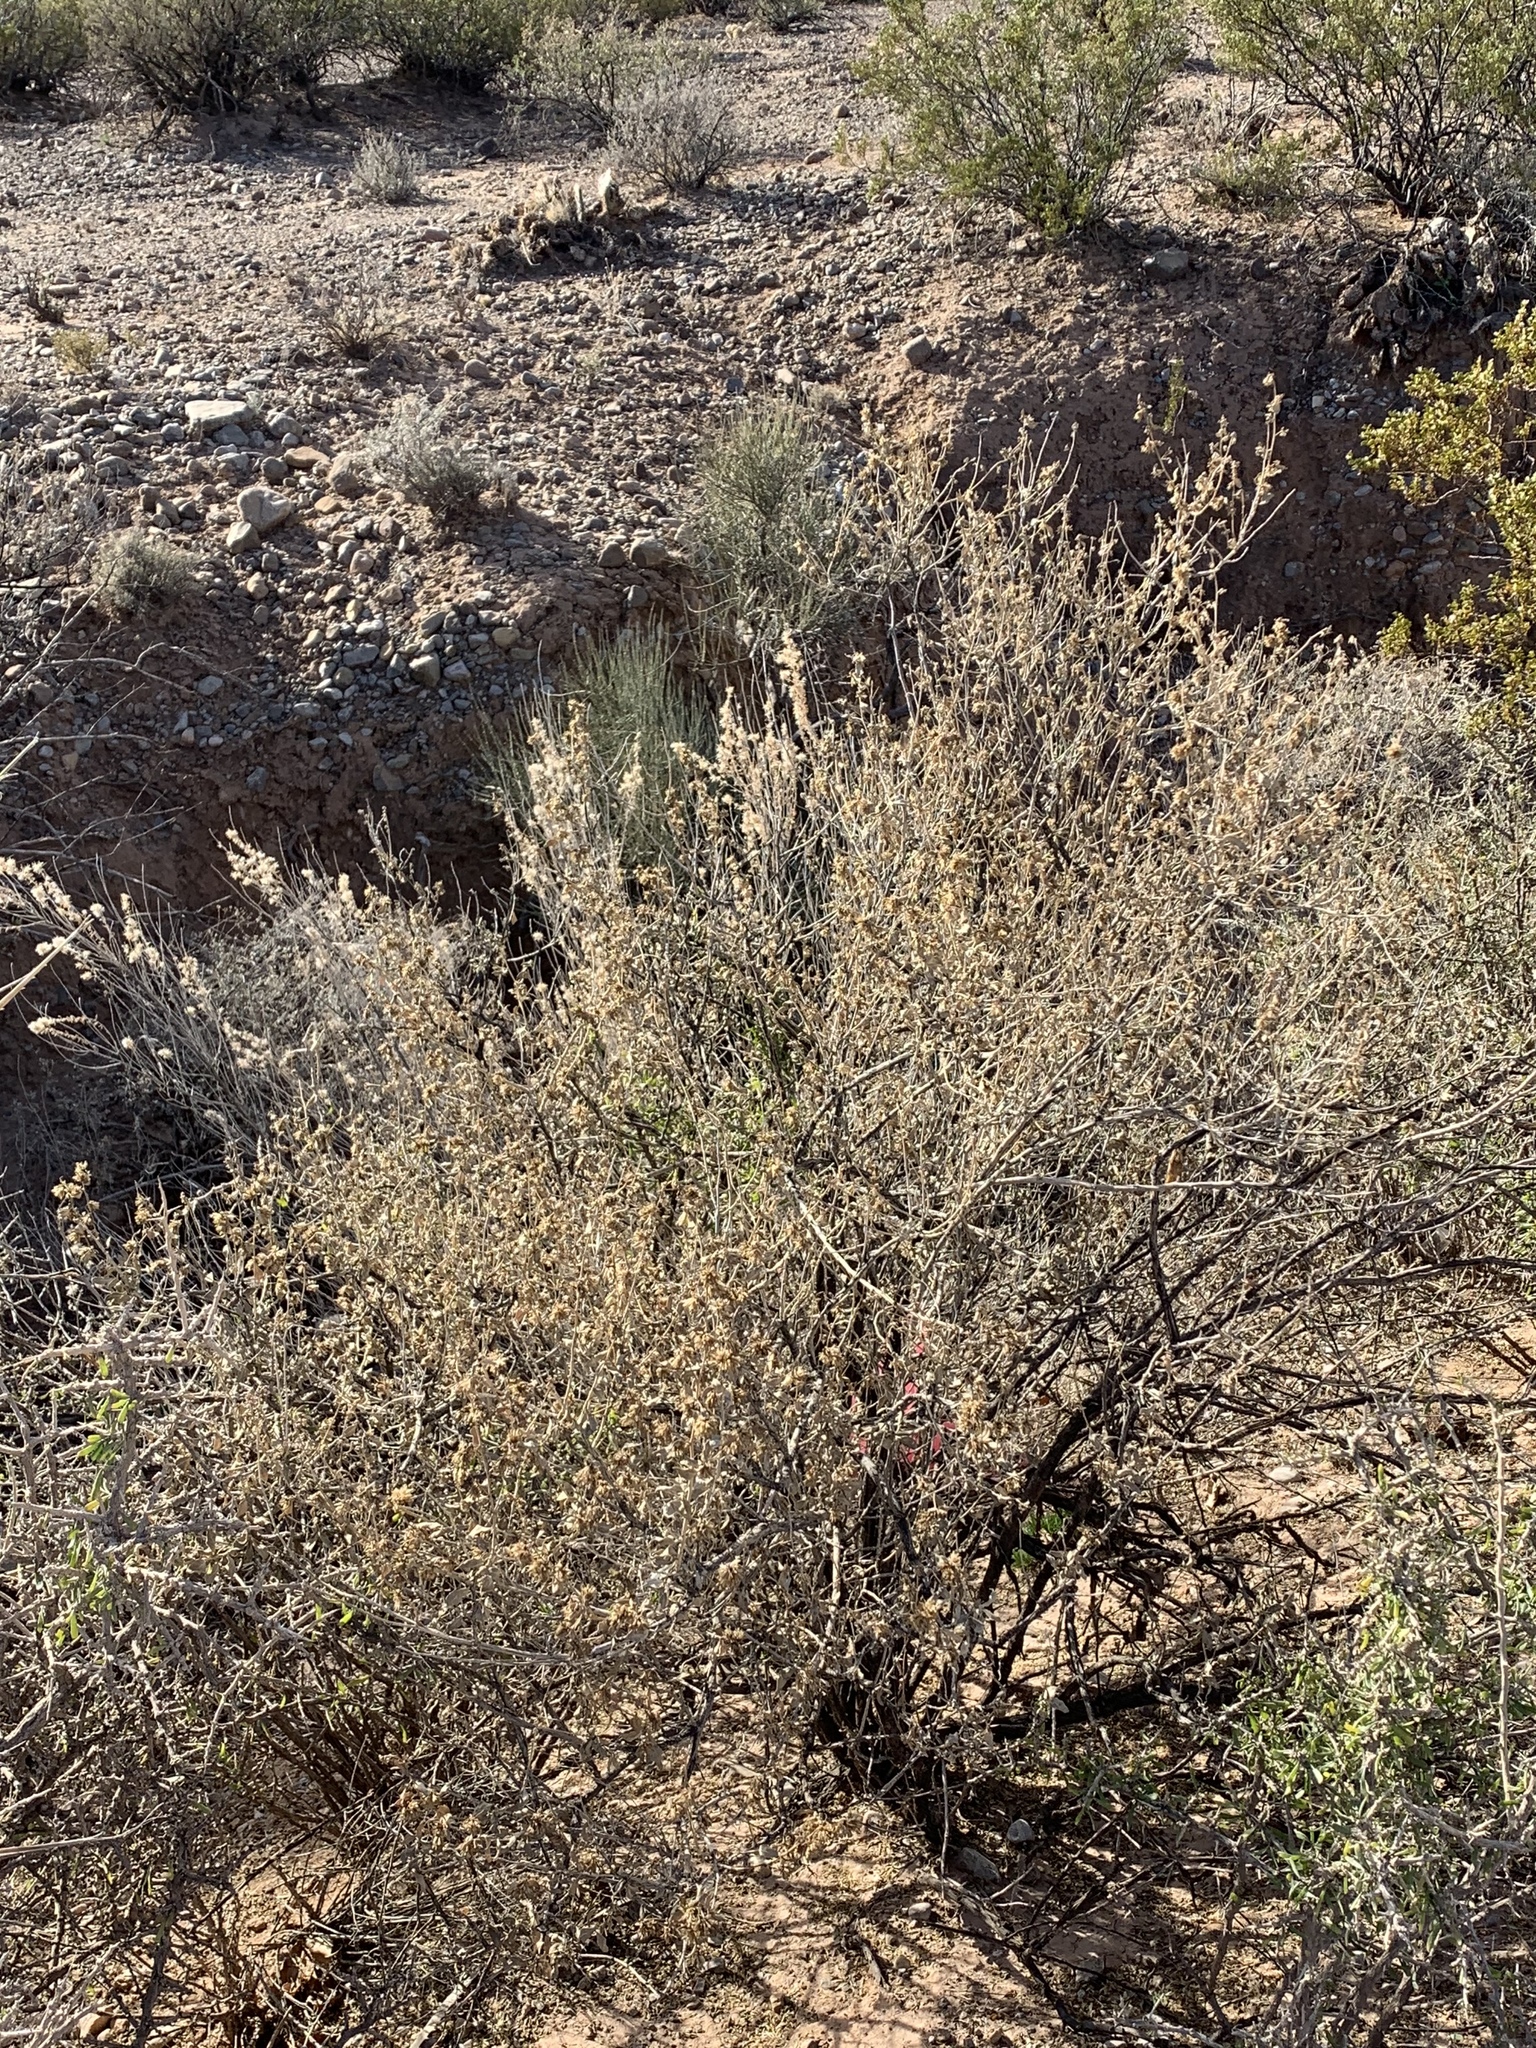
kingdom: Plantae
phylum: Tracheophyta
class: Magnoliopsida
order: Caryophyllales
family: Amaranthaceae
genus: Atriplex
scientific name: Atriplex canescens
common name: Four-wing saltbush
